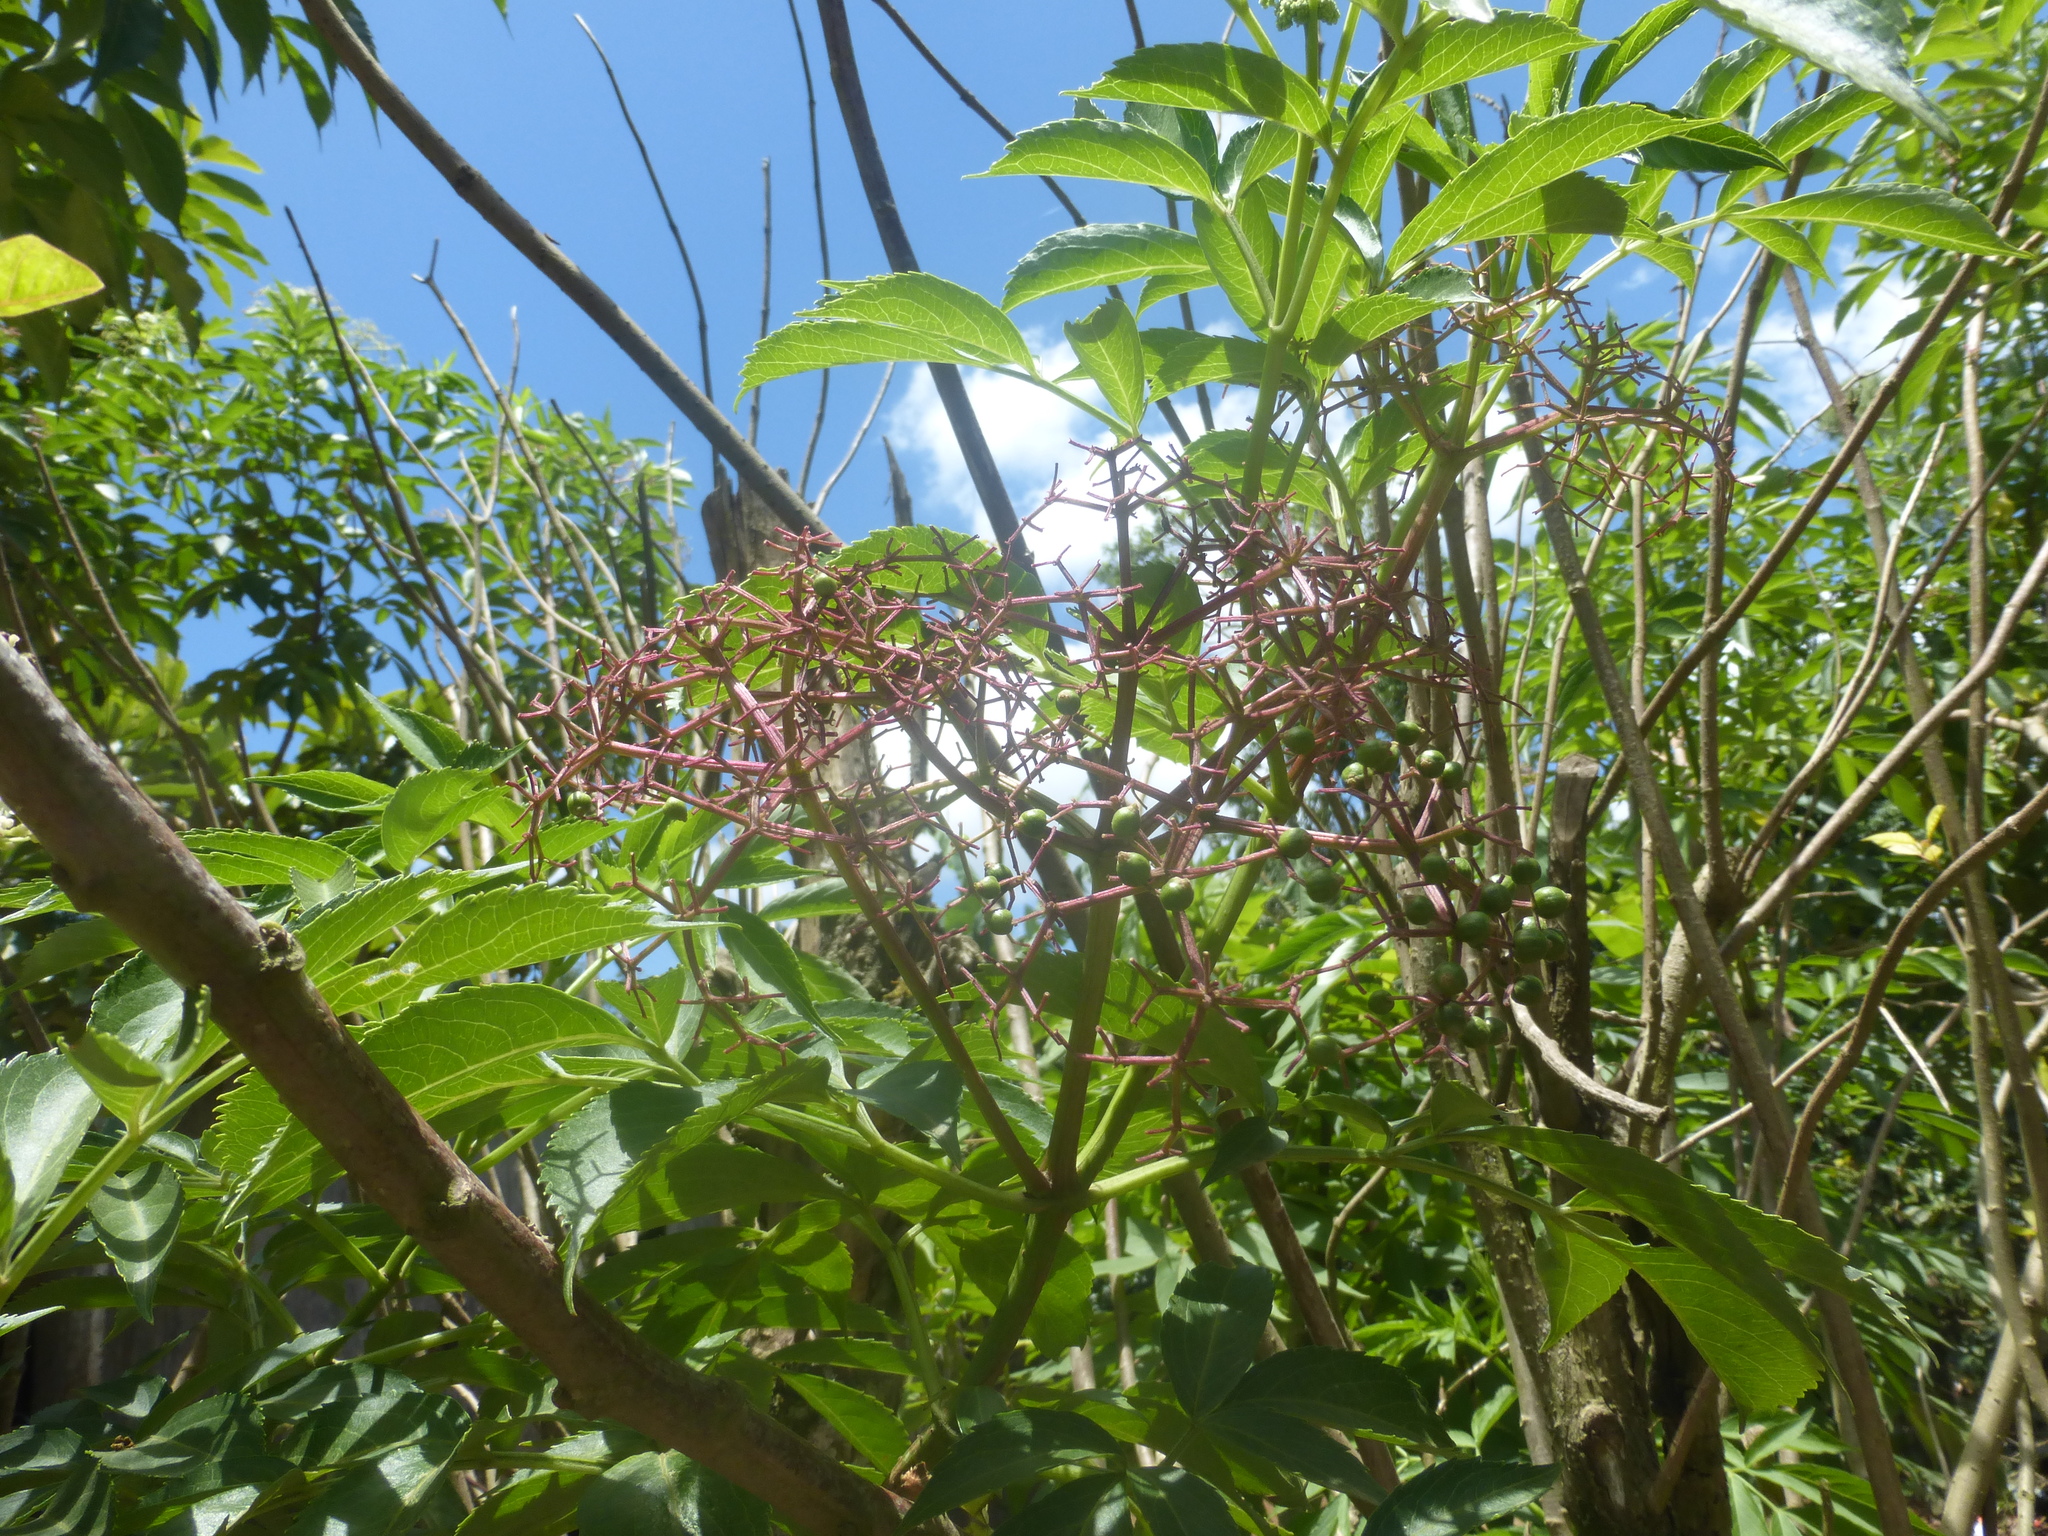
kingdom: Plantae
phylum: Tracheophyta
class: Magnoliopsida
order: Dipsacales
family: Viburnaceae
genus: Sambucus
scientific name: Sambucus canadensis
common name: American elder
